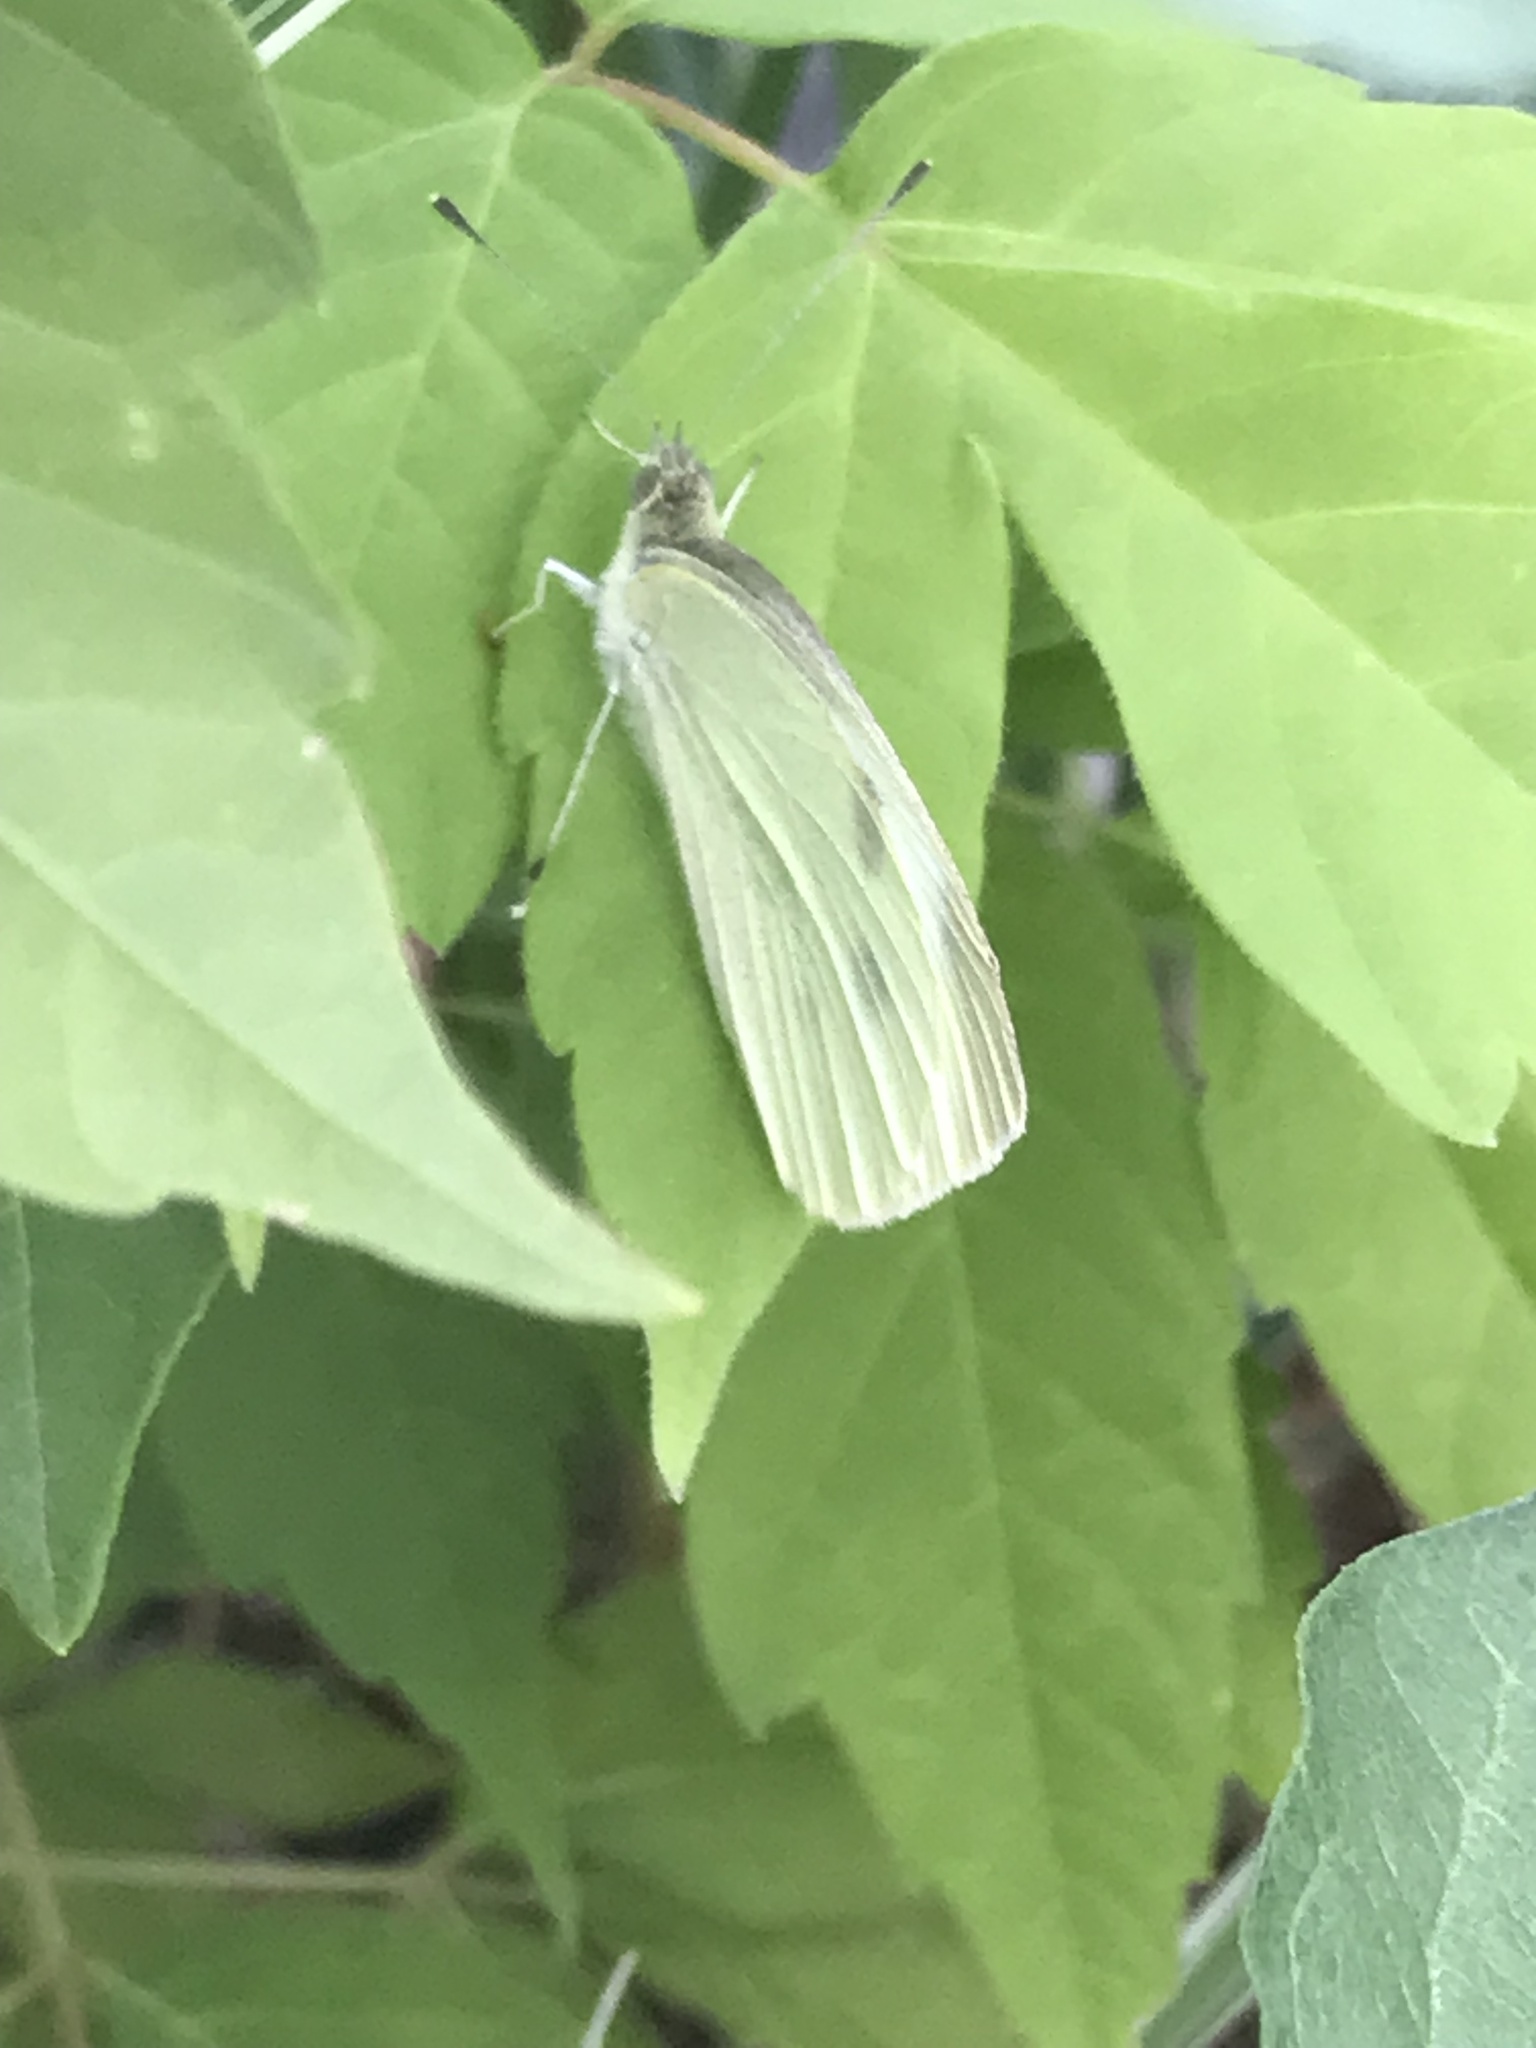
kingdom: Animalia
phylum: Arthropoda
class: Insecta
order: Lepidoptera
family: Pieridae
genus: Pieris
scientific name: Pieris rapae
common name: Small white
